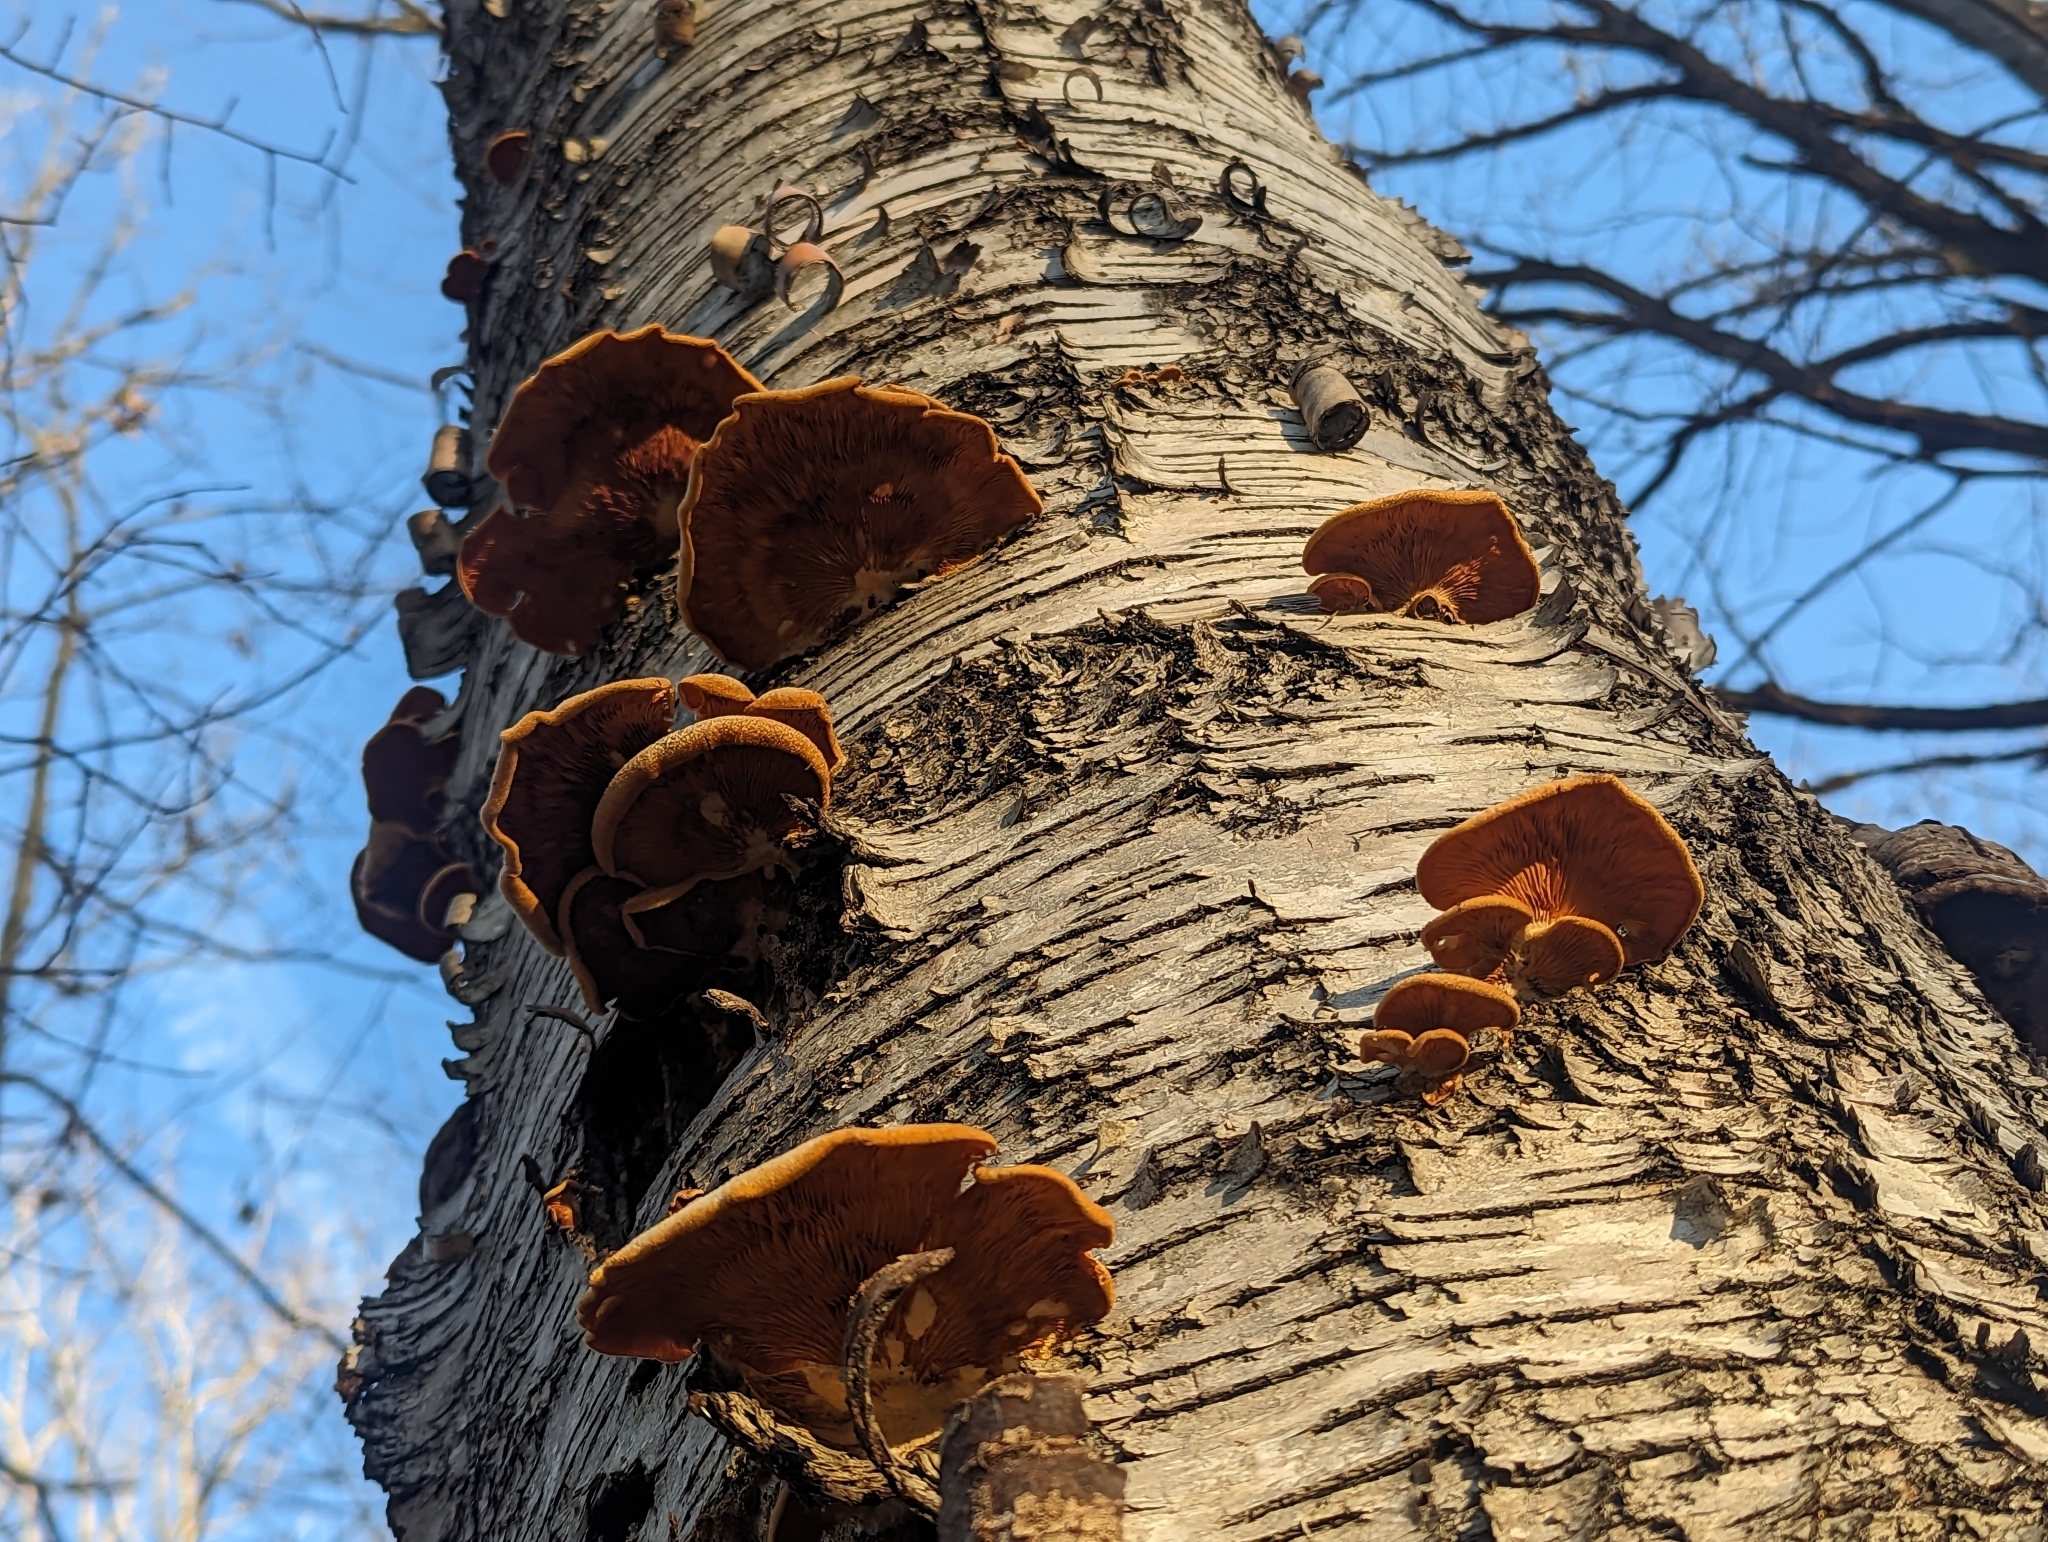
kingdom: Fungi
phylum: Basidiomycota
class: Agaricomycetes
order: Agaricales
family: Phyllotopsidaceae
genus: Phyllotopsis
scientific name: Phyllotopsis nidulans
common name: Orange mock oyster
